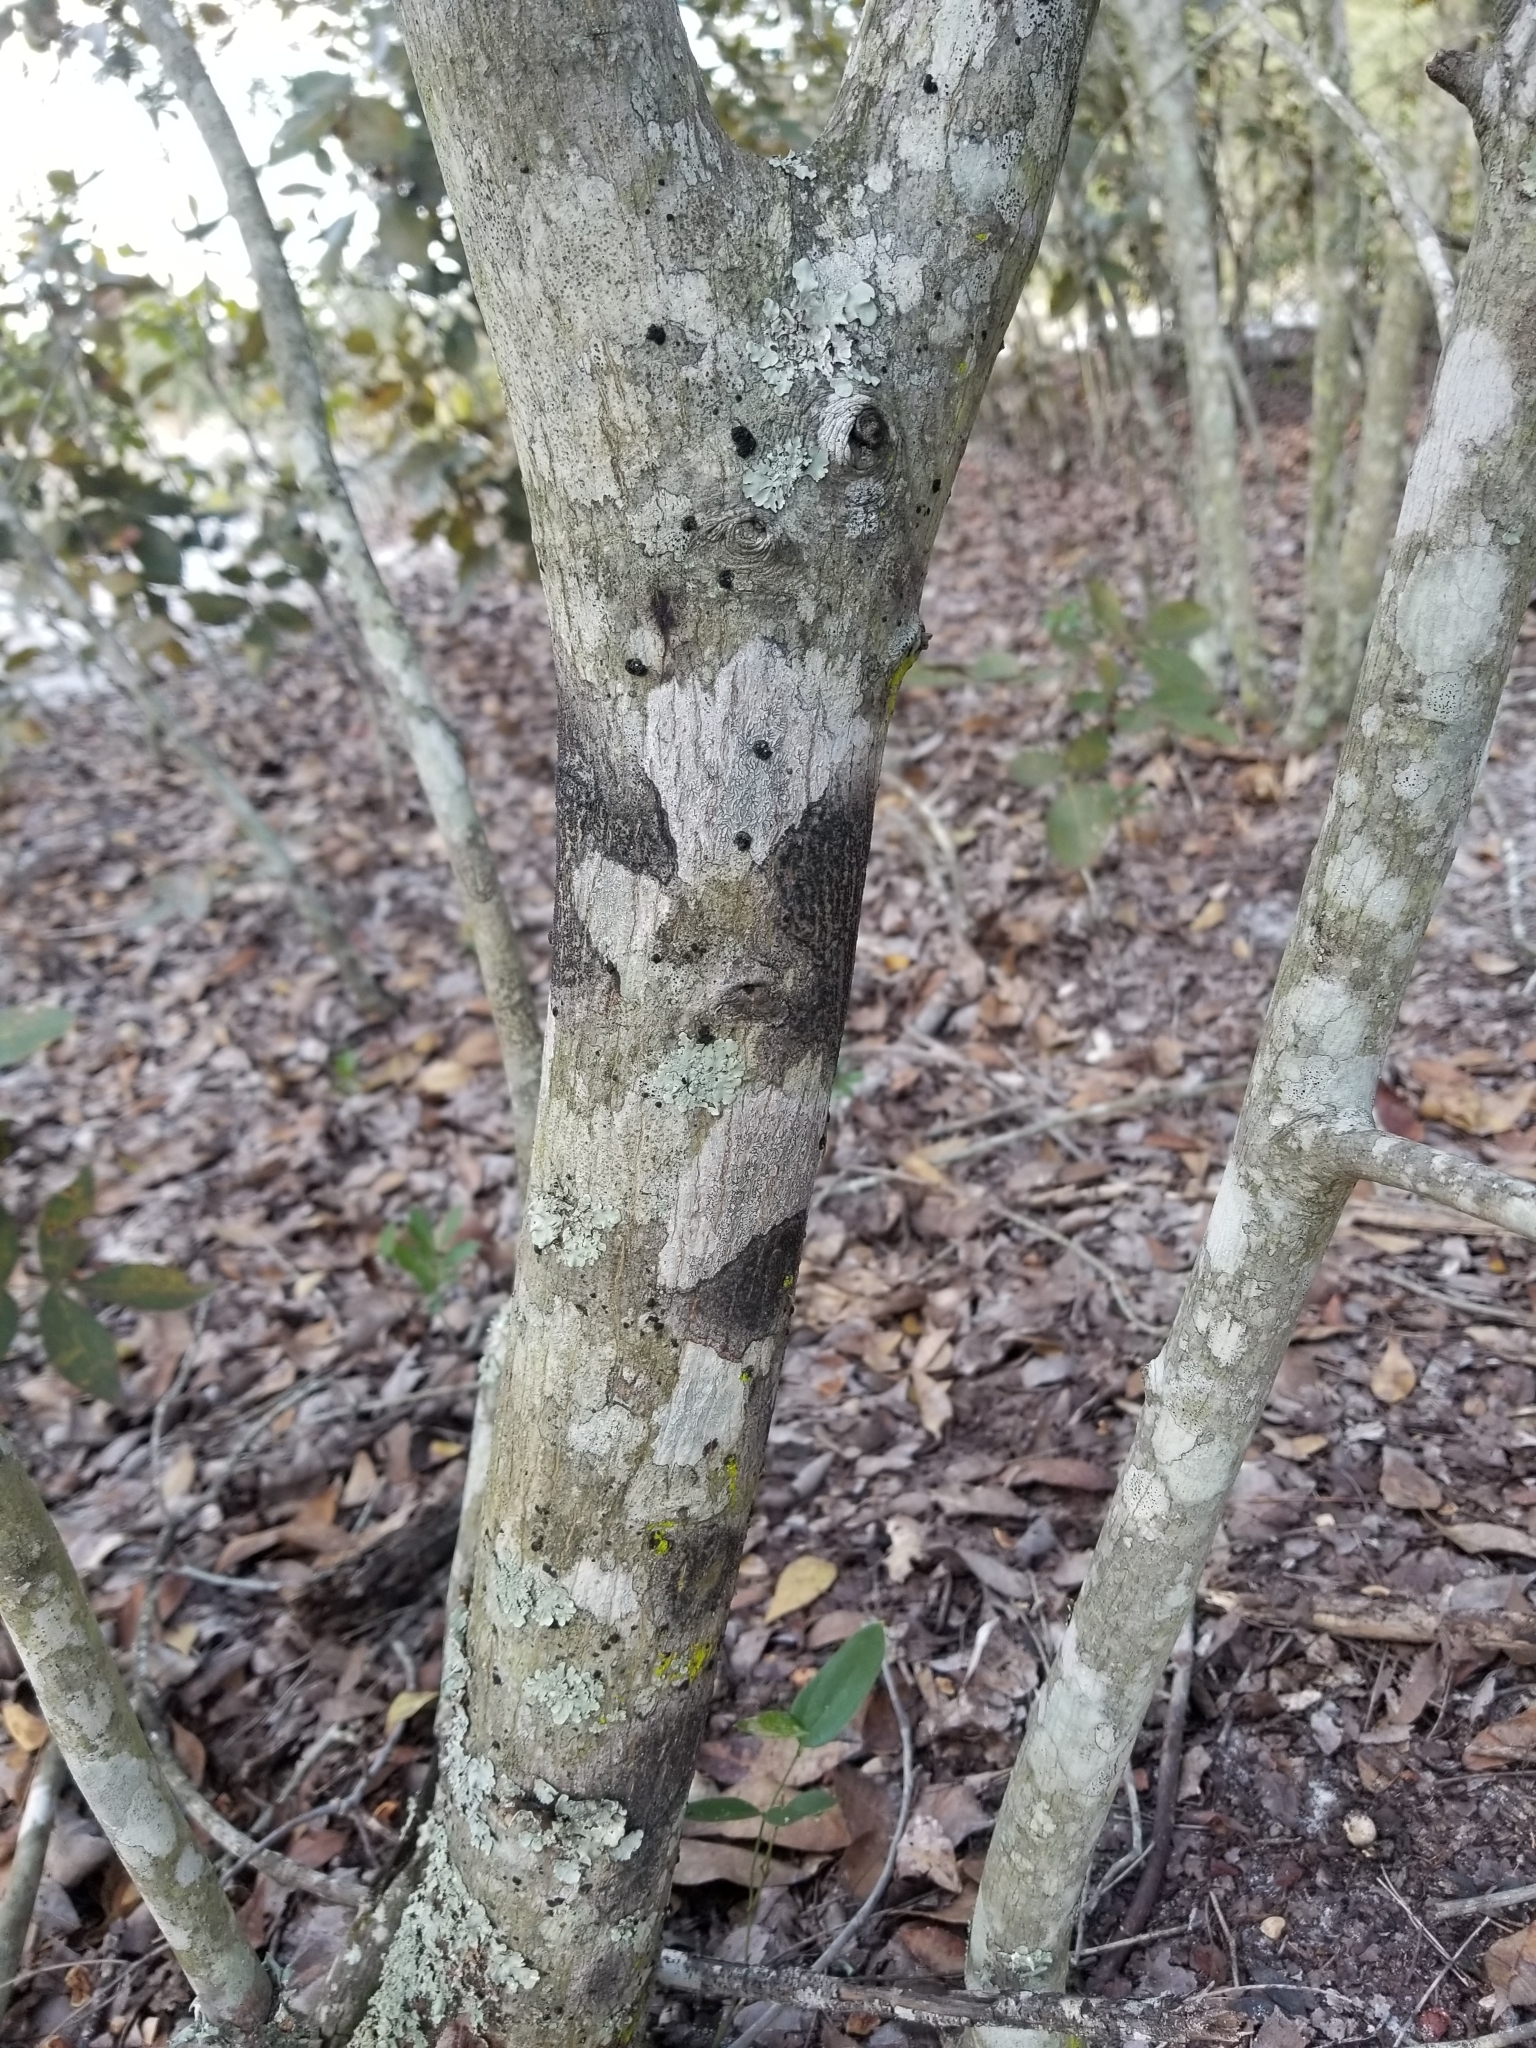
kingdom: Plantae
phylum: Tracheophyta
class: Magnoliopsida
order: Fagales
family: Juglandaceae
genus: Carya
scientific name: Carya floridana
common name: Scrub hickory
